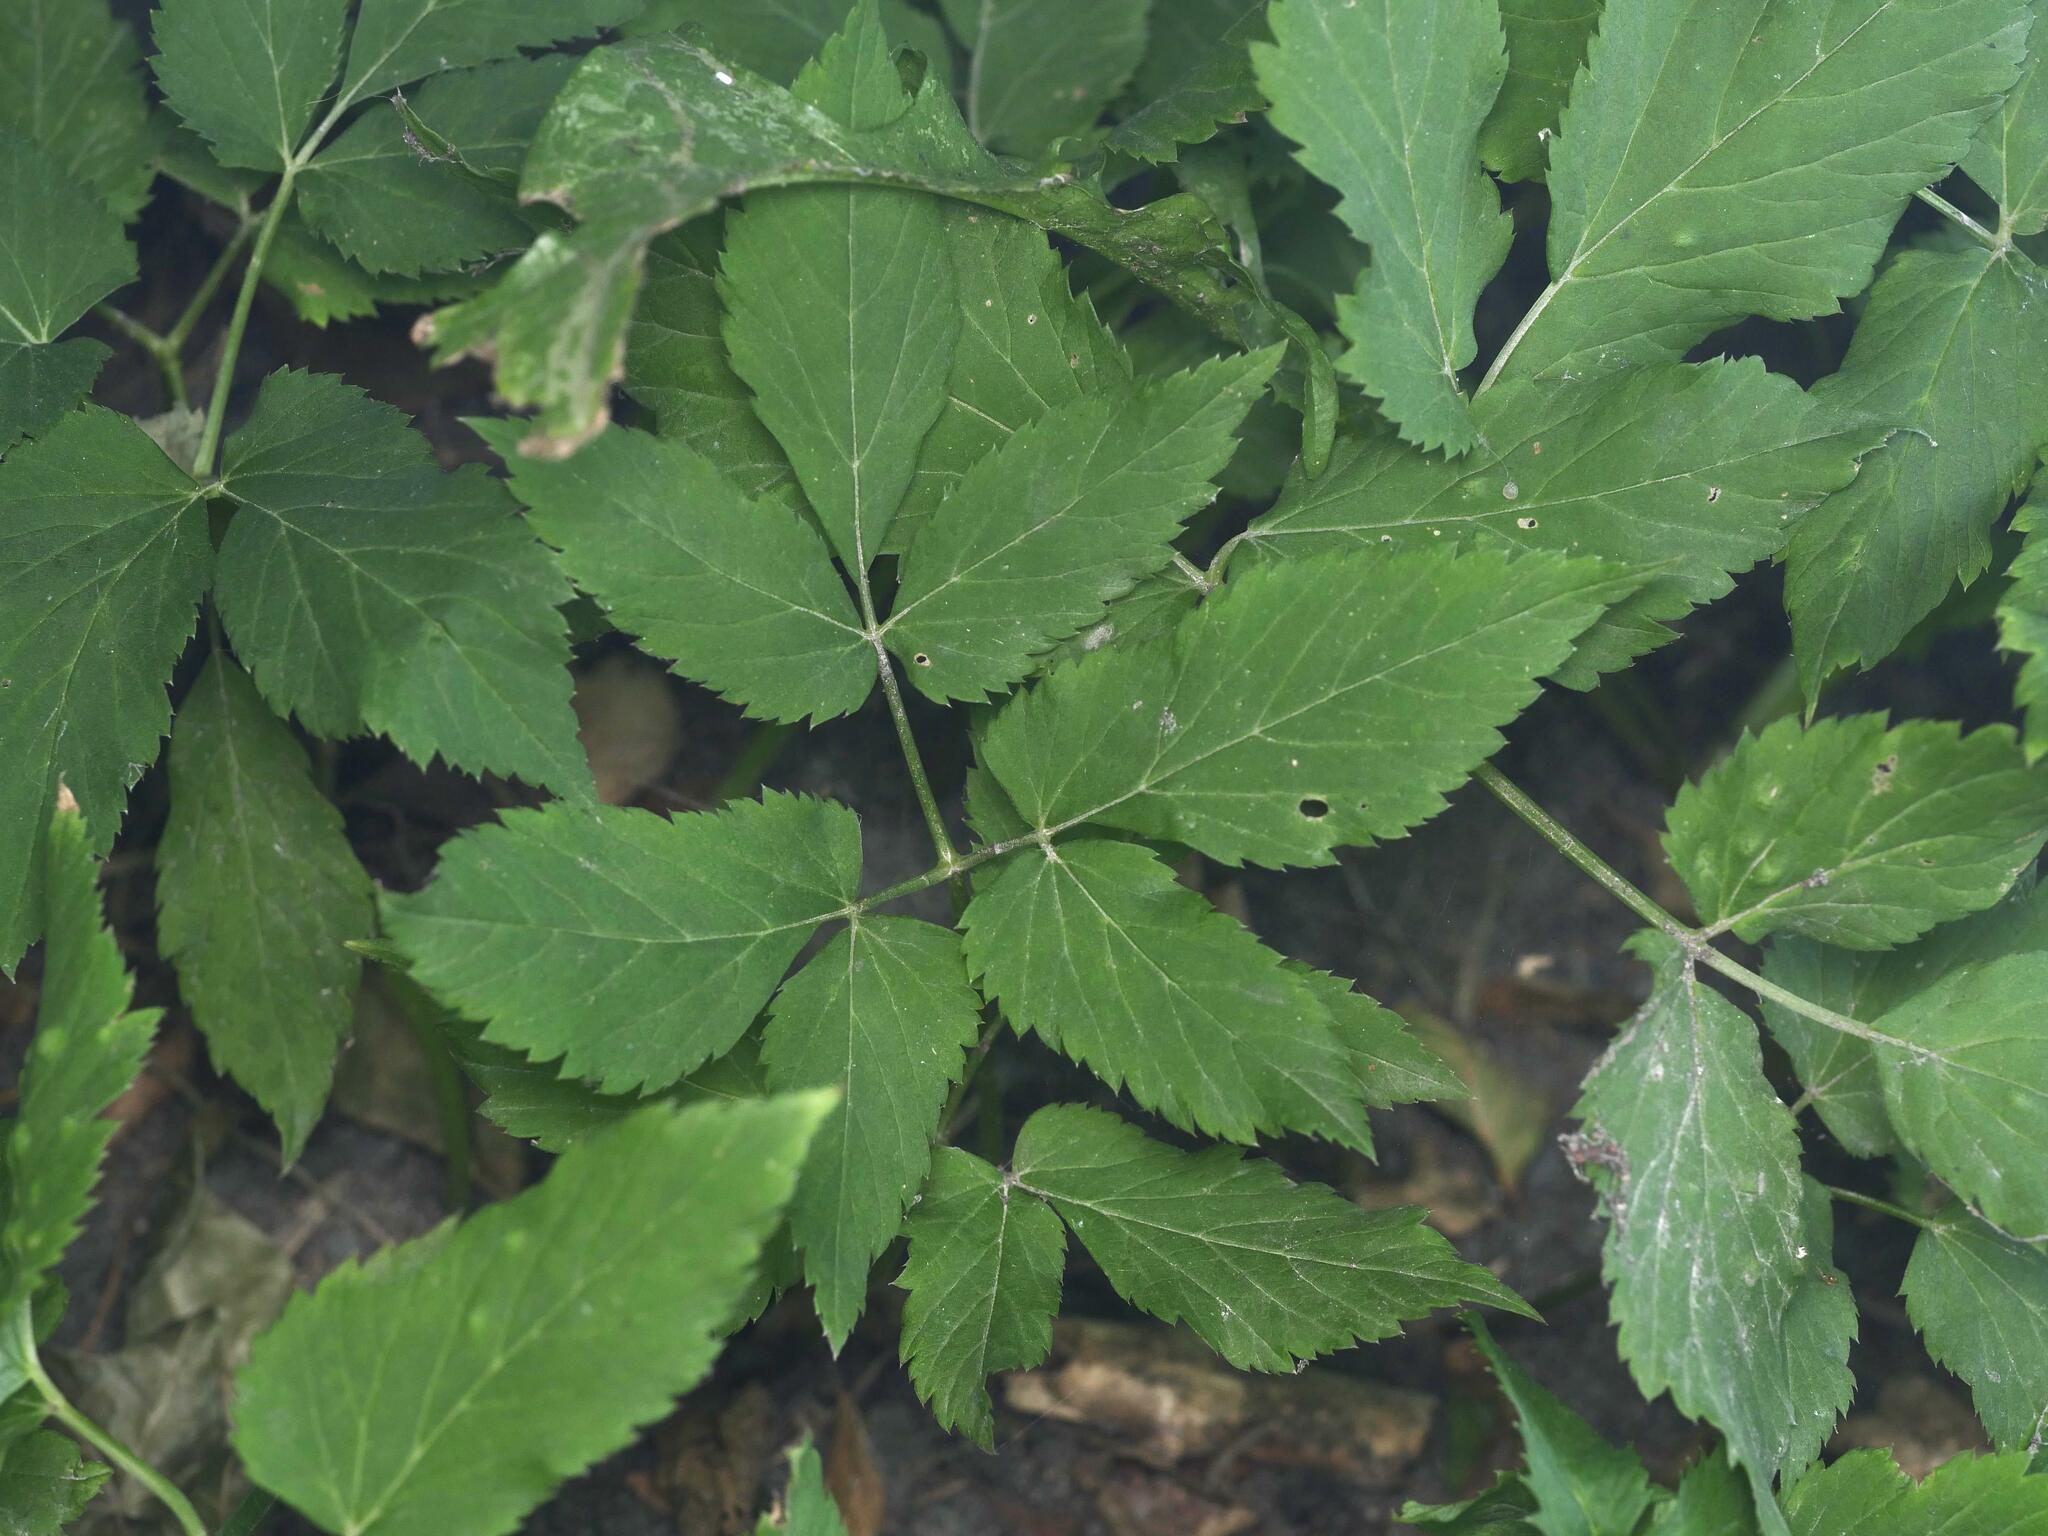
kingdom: Plantae
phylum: Tracheophyta
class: Magnoliopsida
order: Apiales
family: Apiaceae
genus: Aegopodium
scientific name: Aegopodium podagraria
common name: Ground-elder
